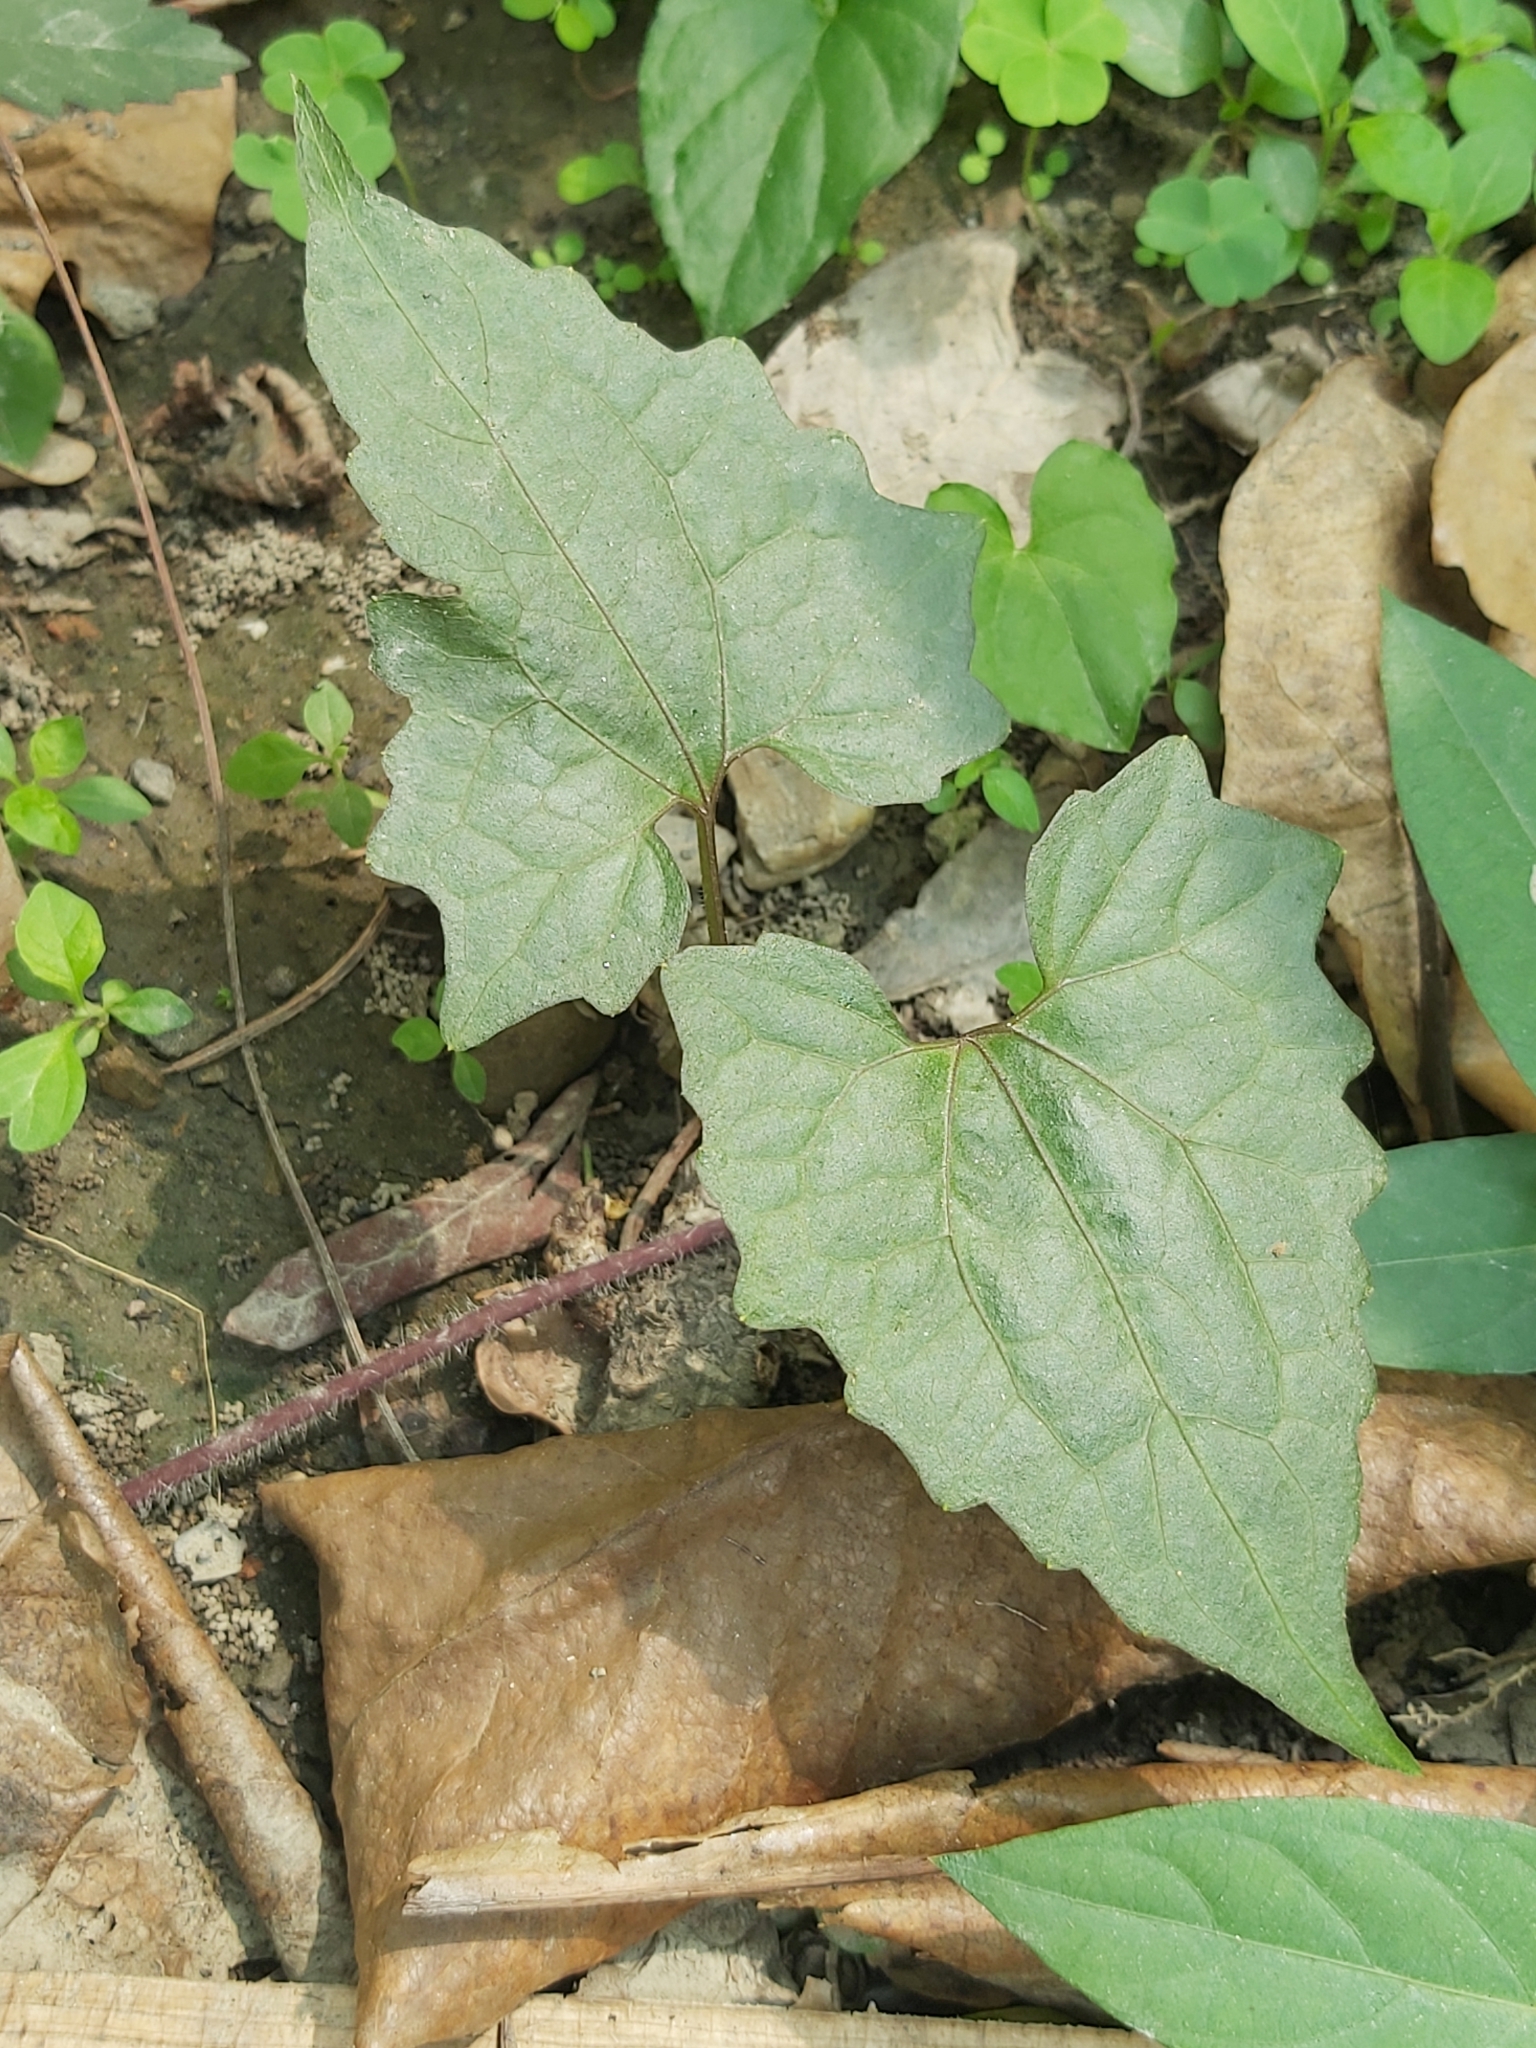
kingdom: Plantae
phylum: Tracheophyta
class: Magnoliopsida
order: Asterales
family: Asteraceae
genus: Mikania
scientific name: Mikania micrantha
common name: Mile-a-minute
